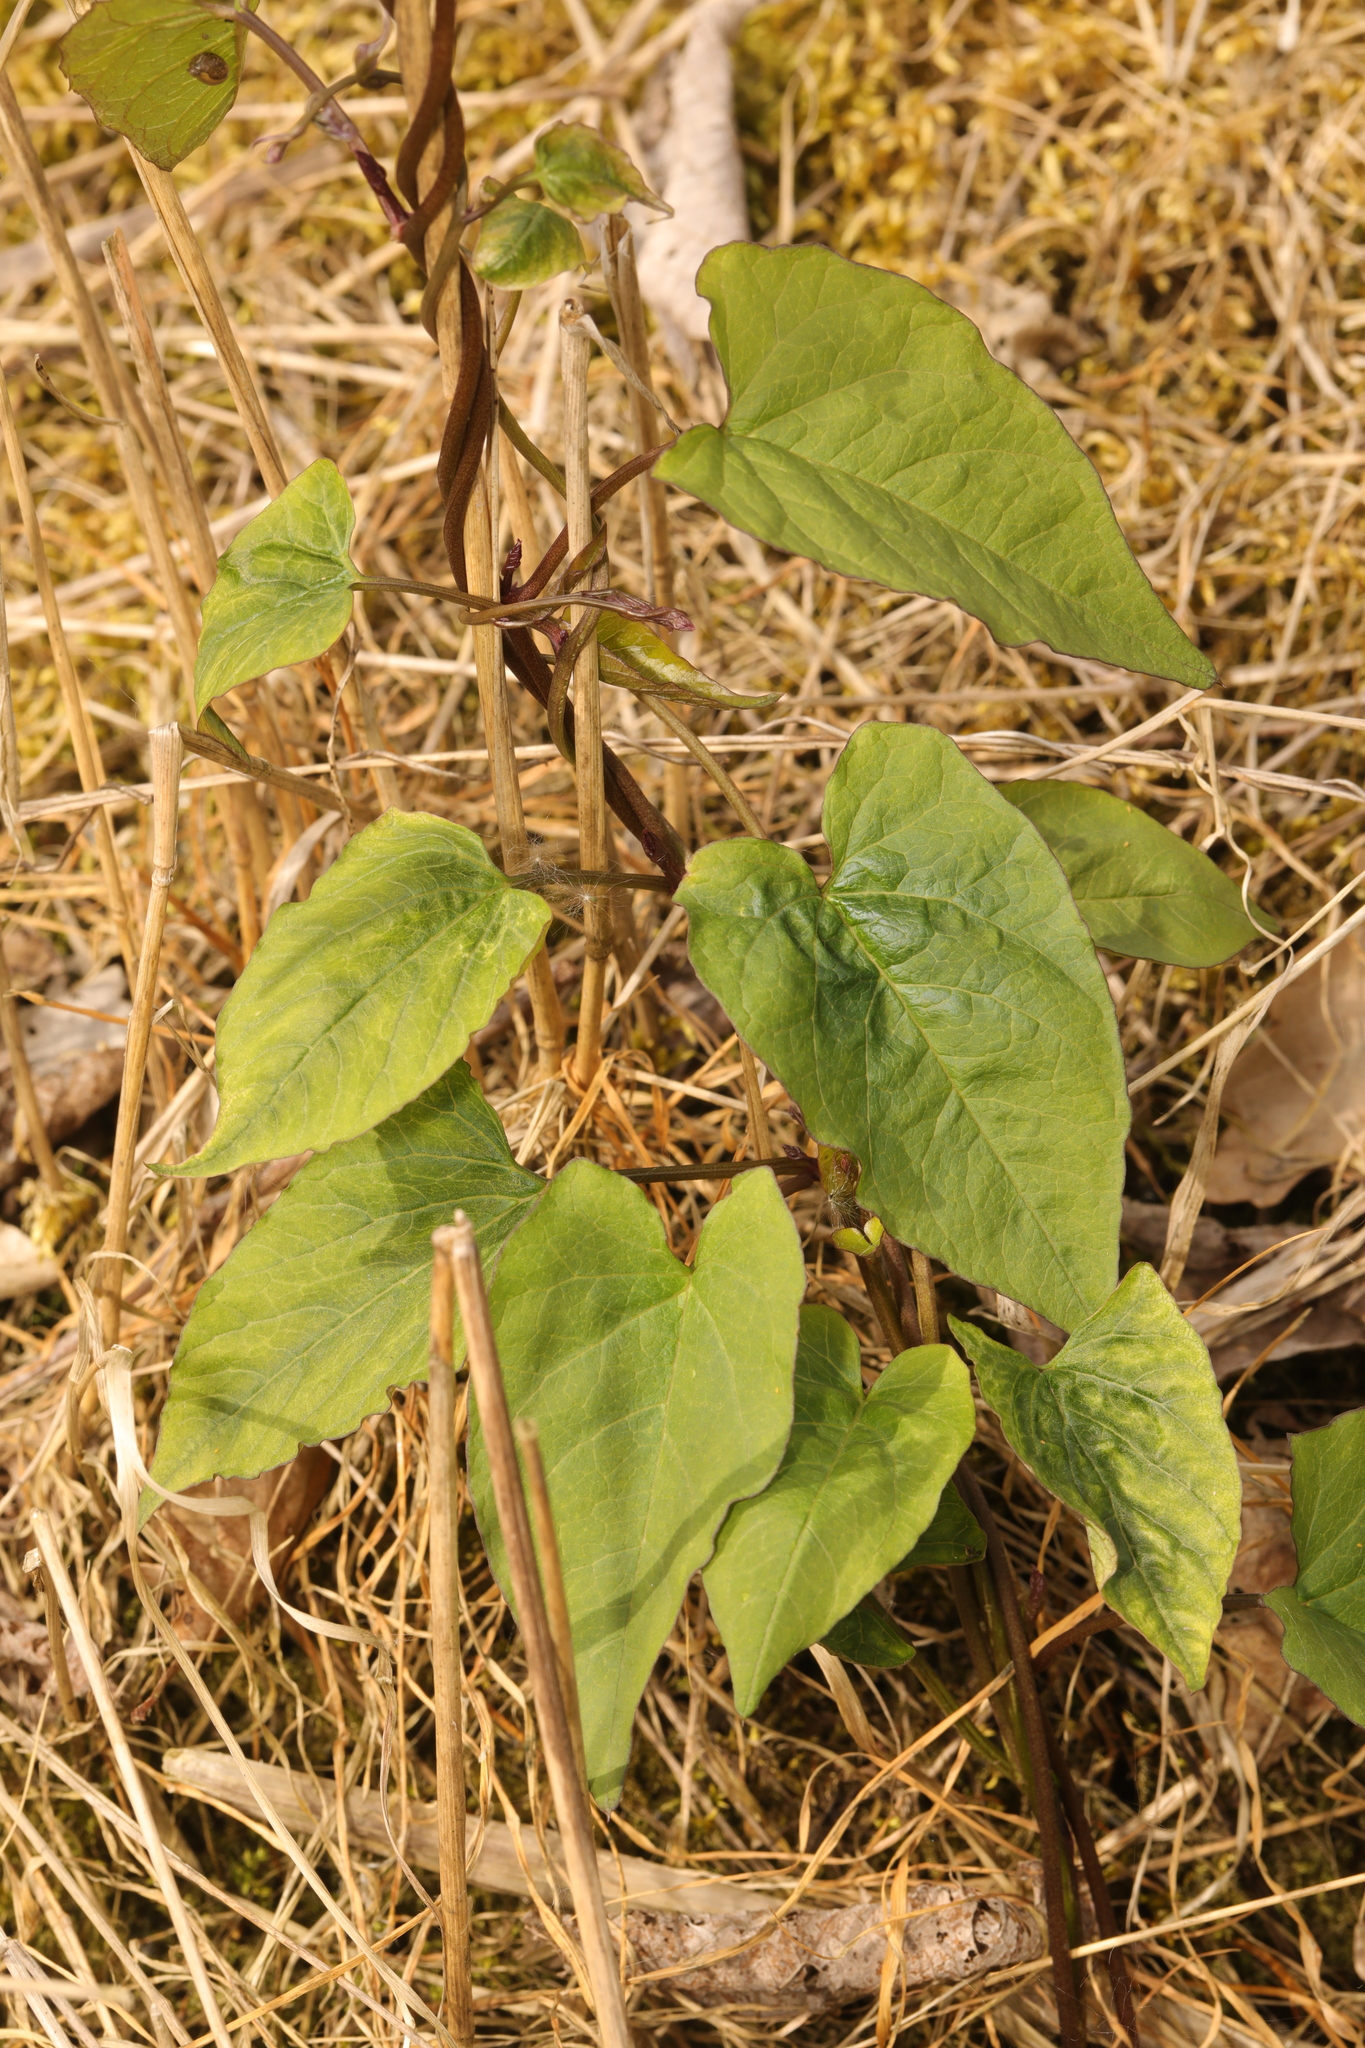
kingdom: Plantae
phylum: Tracheophyta
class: Magnoliopsida
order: Solanales
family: Convolvulaceae
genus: Calystegia
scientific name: Calystegia
